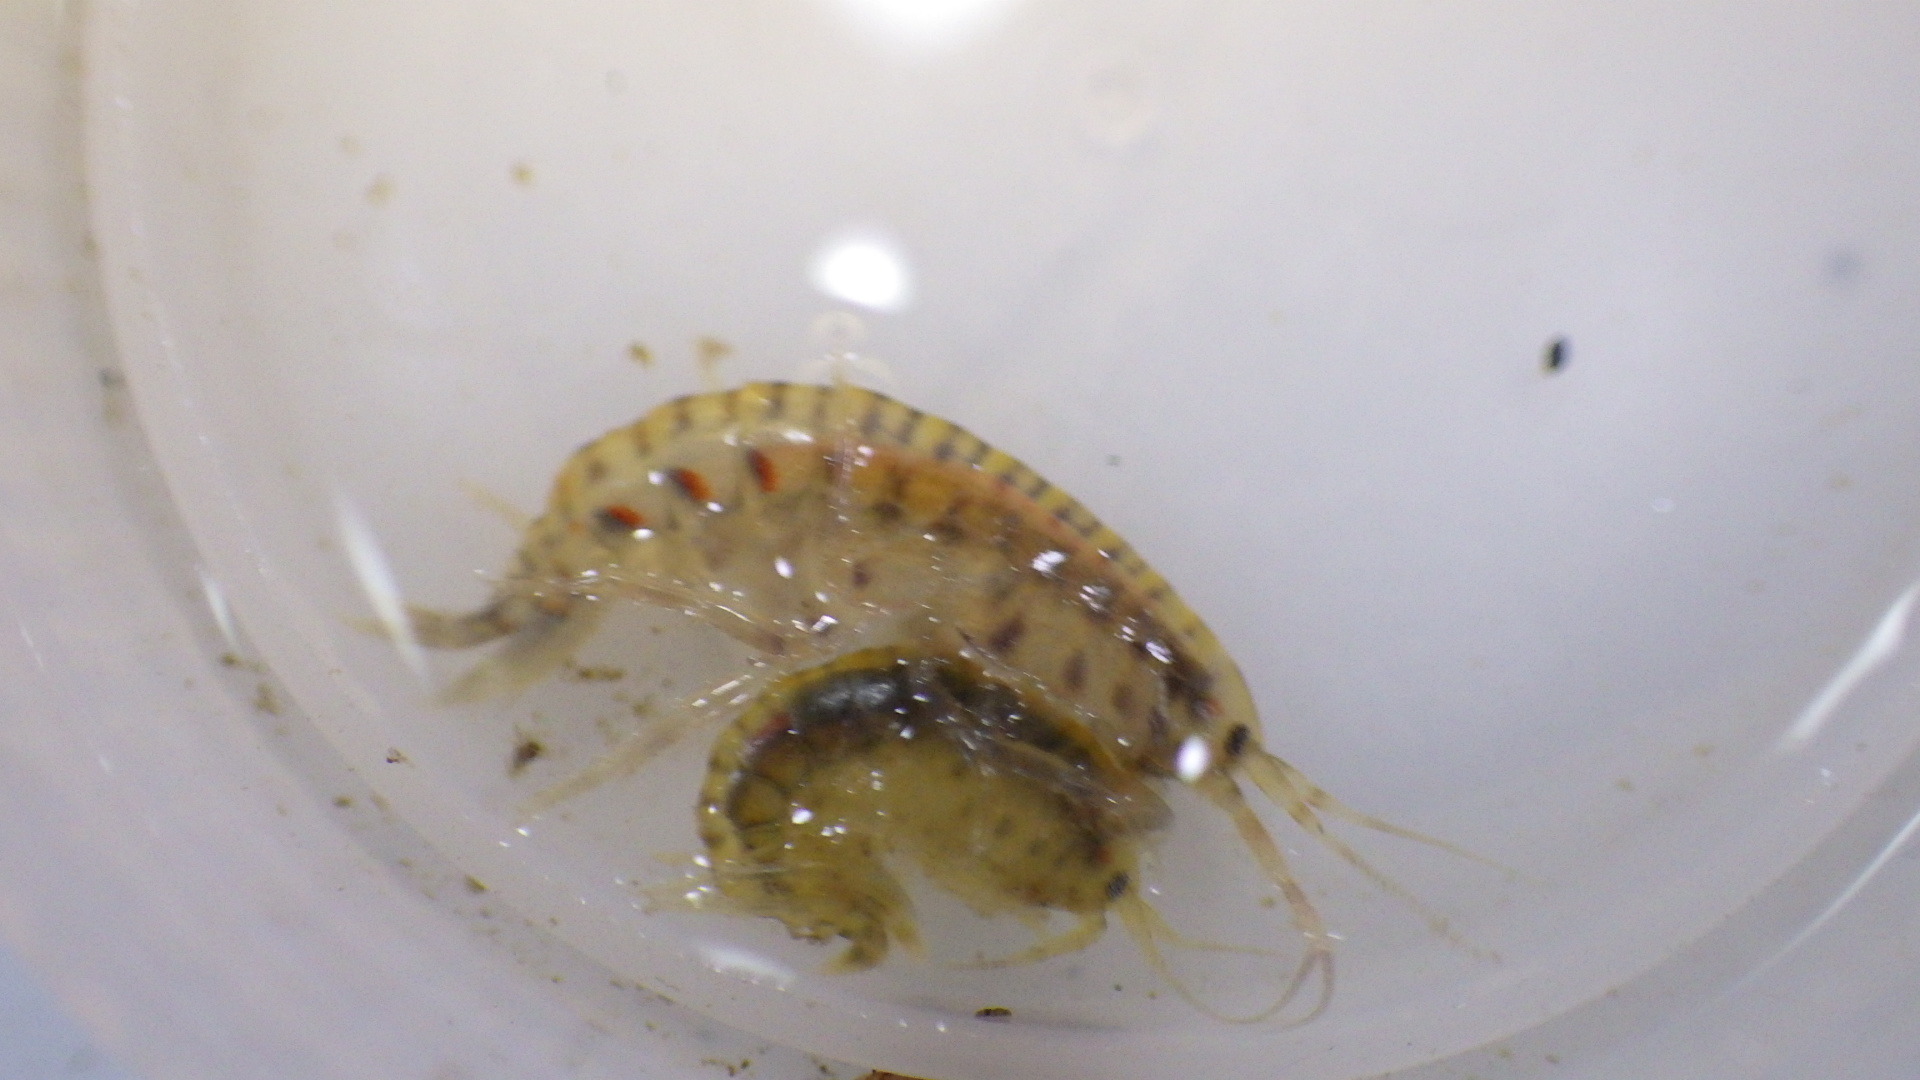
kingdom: Animalia
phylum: Arthropoda
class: Malacostraca
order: Amphipoda
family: Gammaridae
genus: Gammarus
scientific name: Gammarus fasciatus
